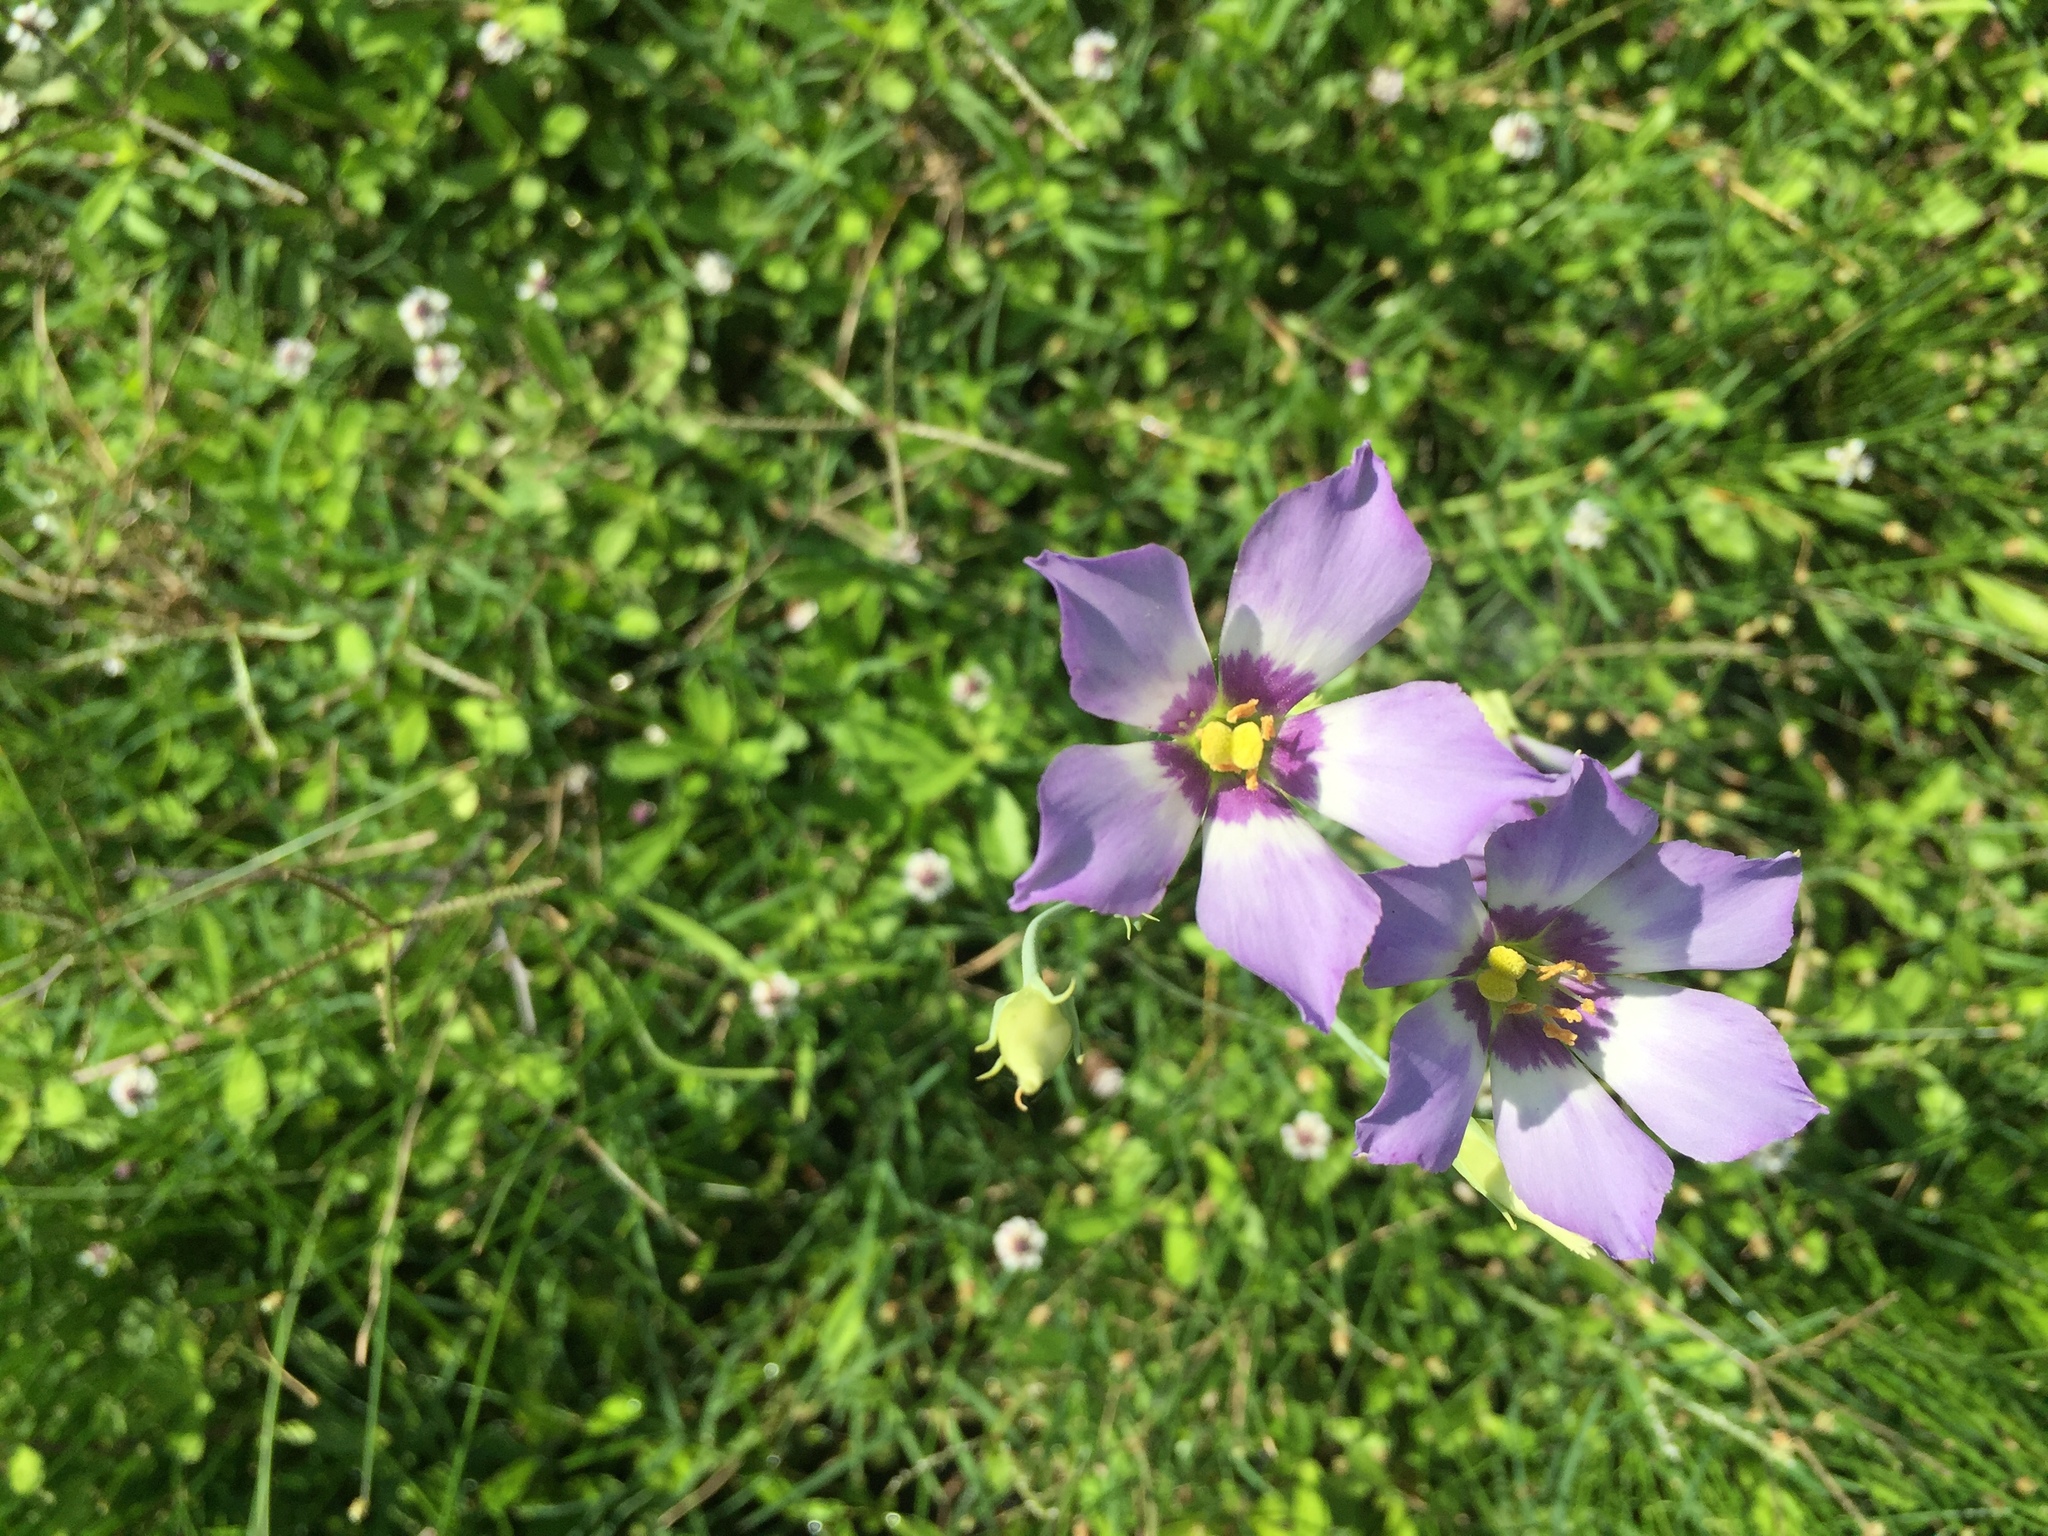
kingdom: Plantae
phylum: Tracheophyta
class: Magnoliopsida
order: Gentianales
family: Gentianaceae
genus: Eustoma
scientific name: Eustoma exaltatum
